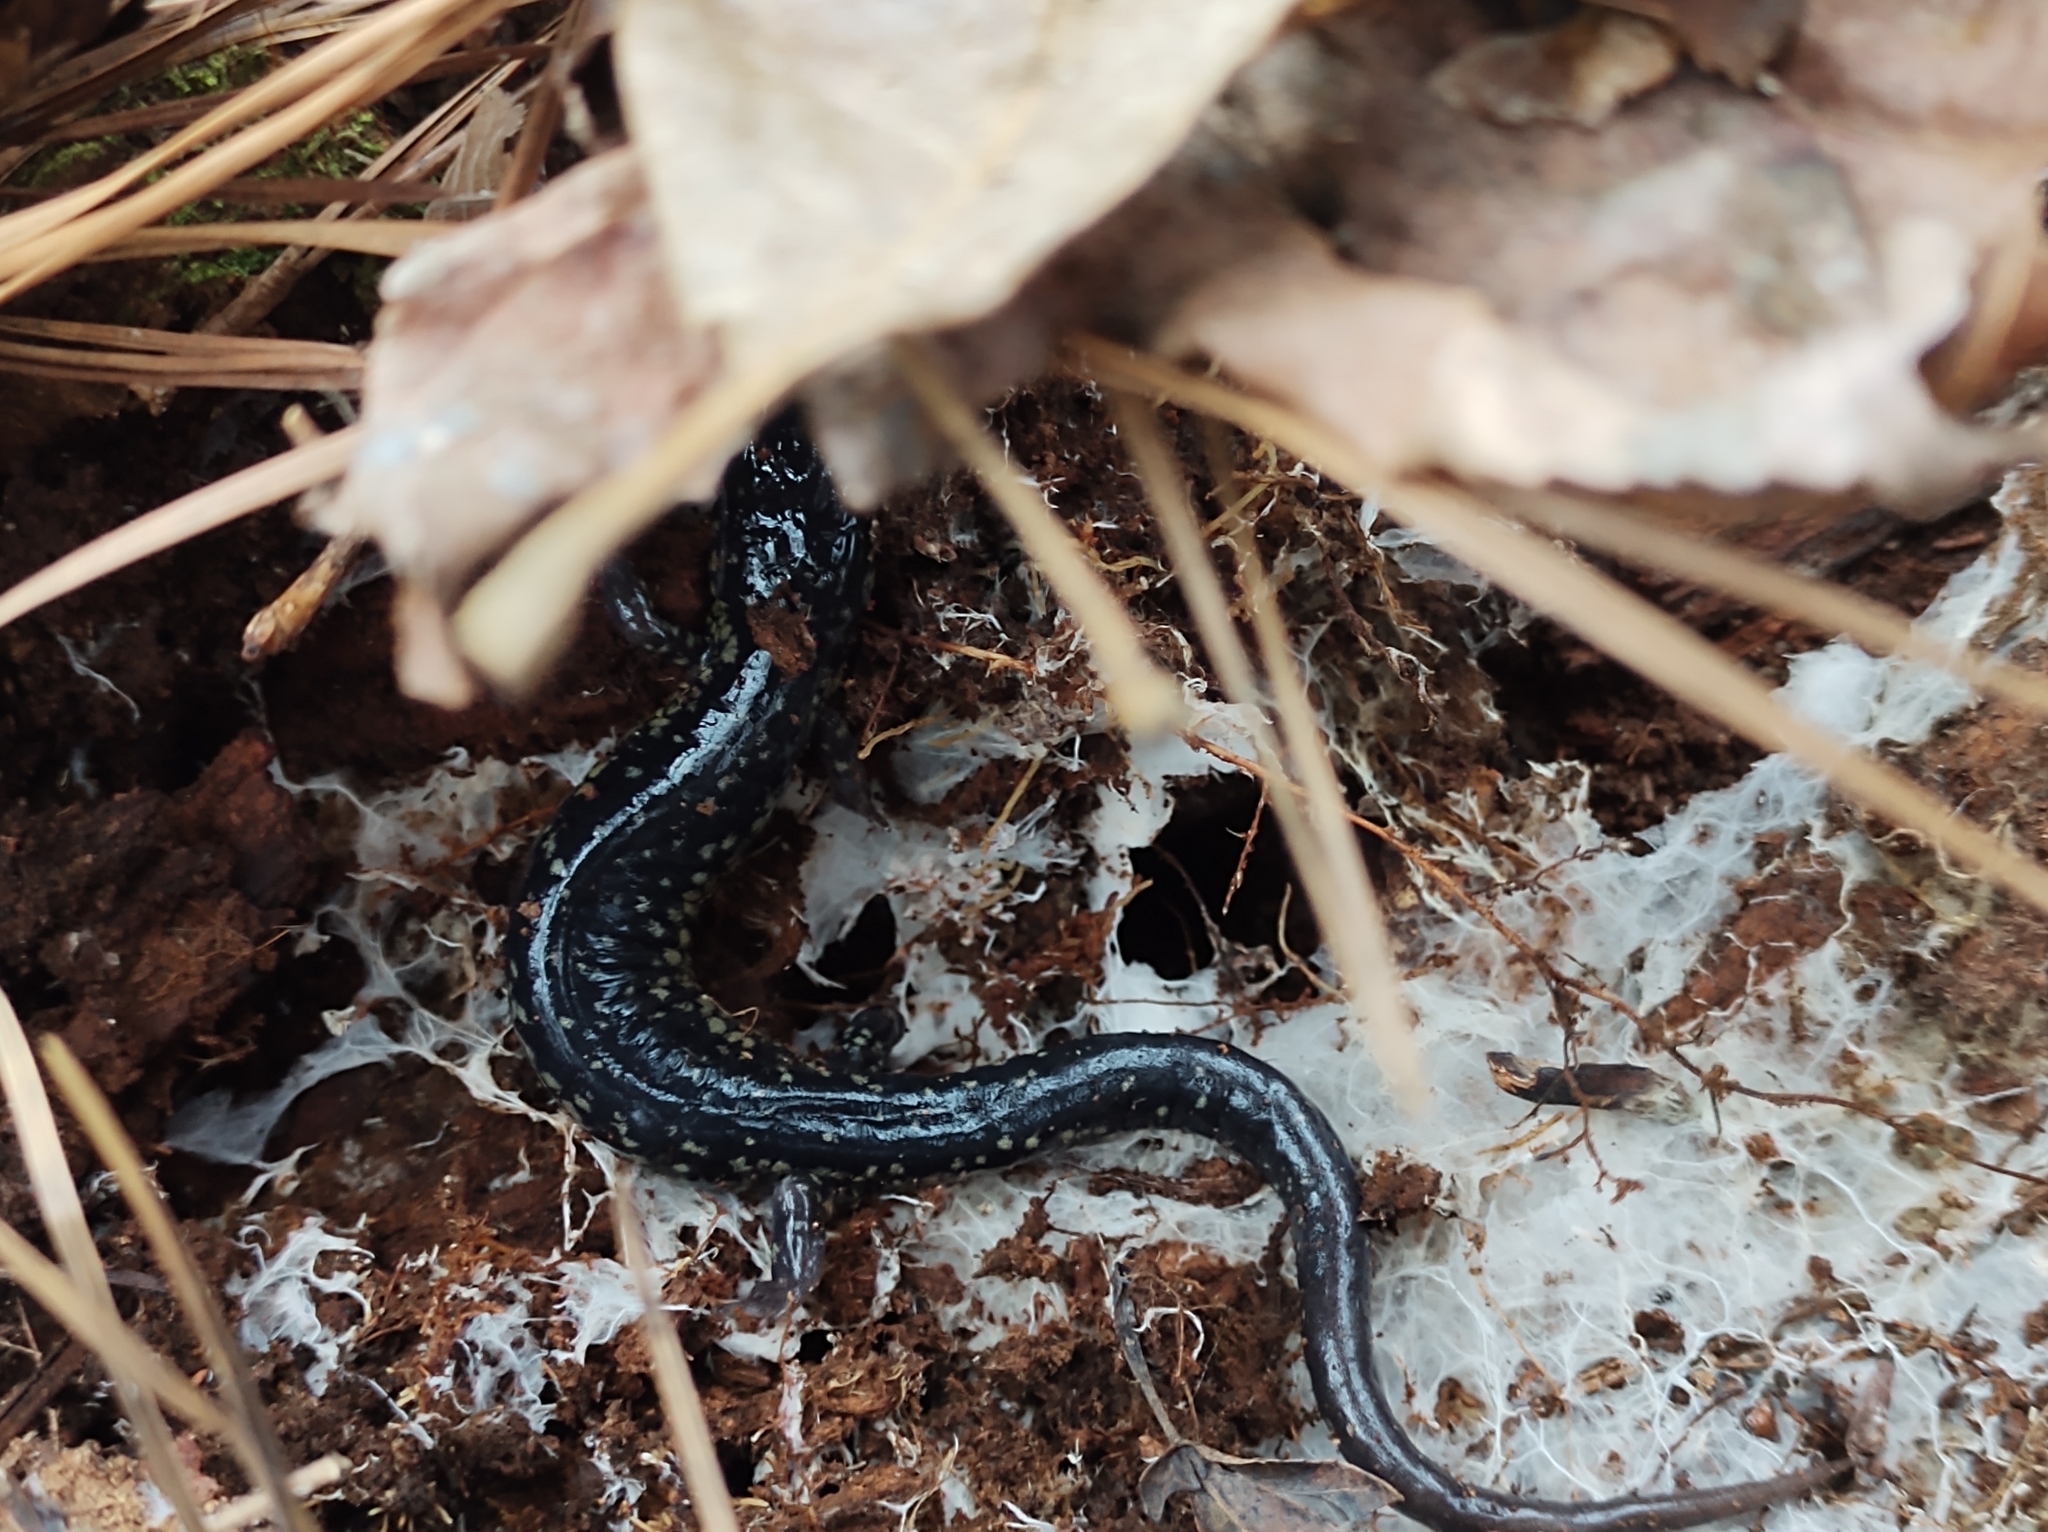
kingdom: Animalia
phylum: Chordata
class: Amphibia
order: Caudata
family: Plethodontidae
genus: Plethodon
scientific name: Plethodon glutinosus
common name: Northern slimy salamander
